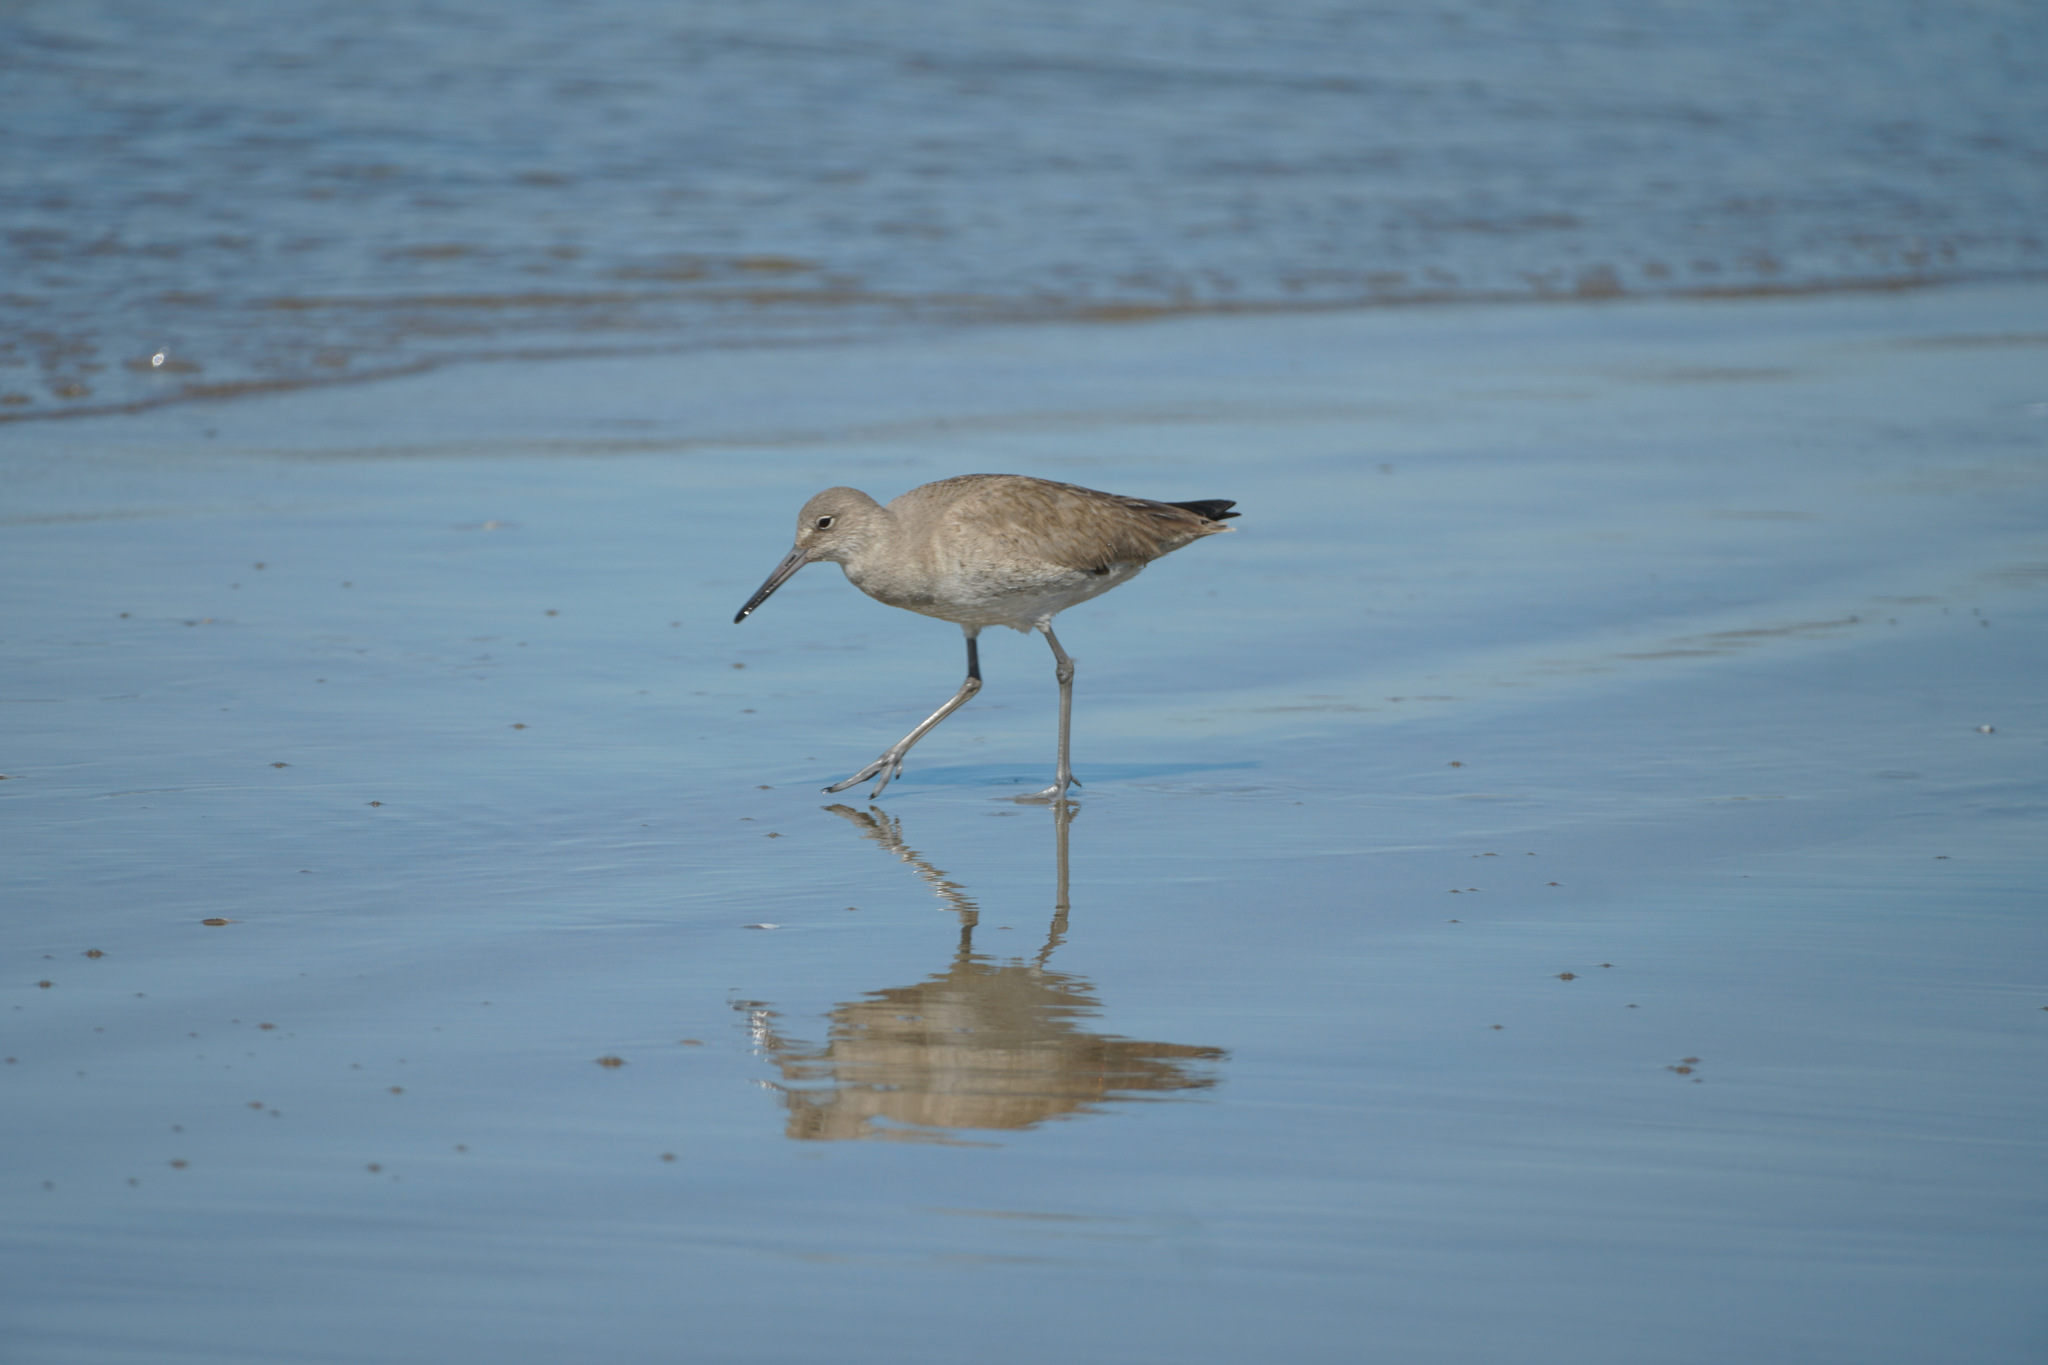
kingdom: Animalia
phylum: Chordata
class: Aves
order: Charadriiformes
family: Scolopacidae
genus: Tringa
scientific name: Tringa semipalmata
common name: Willet
